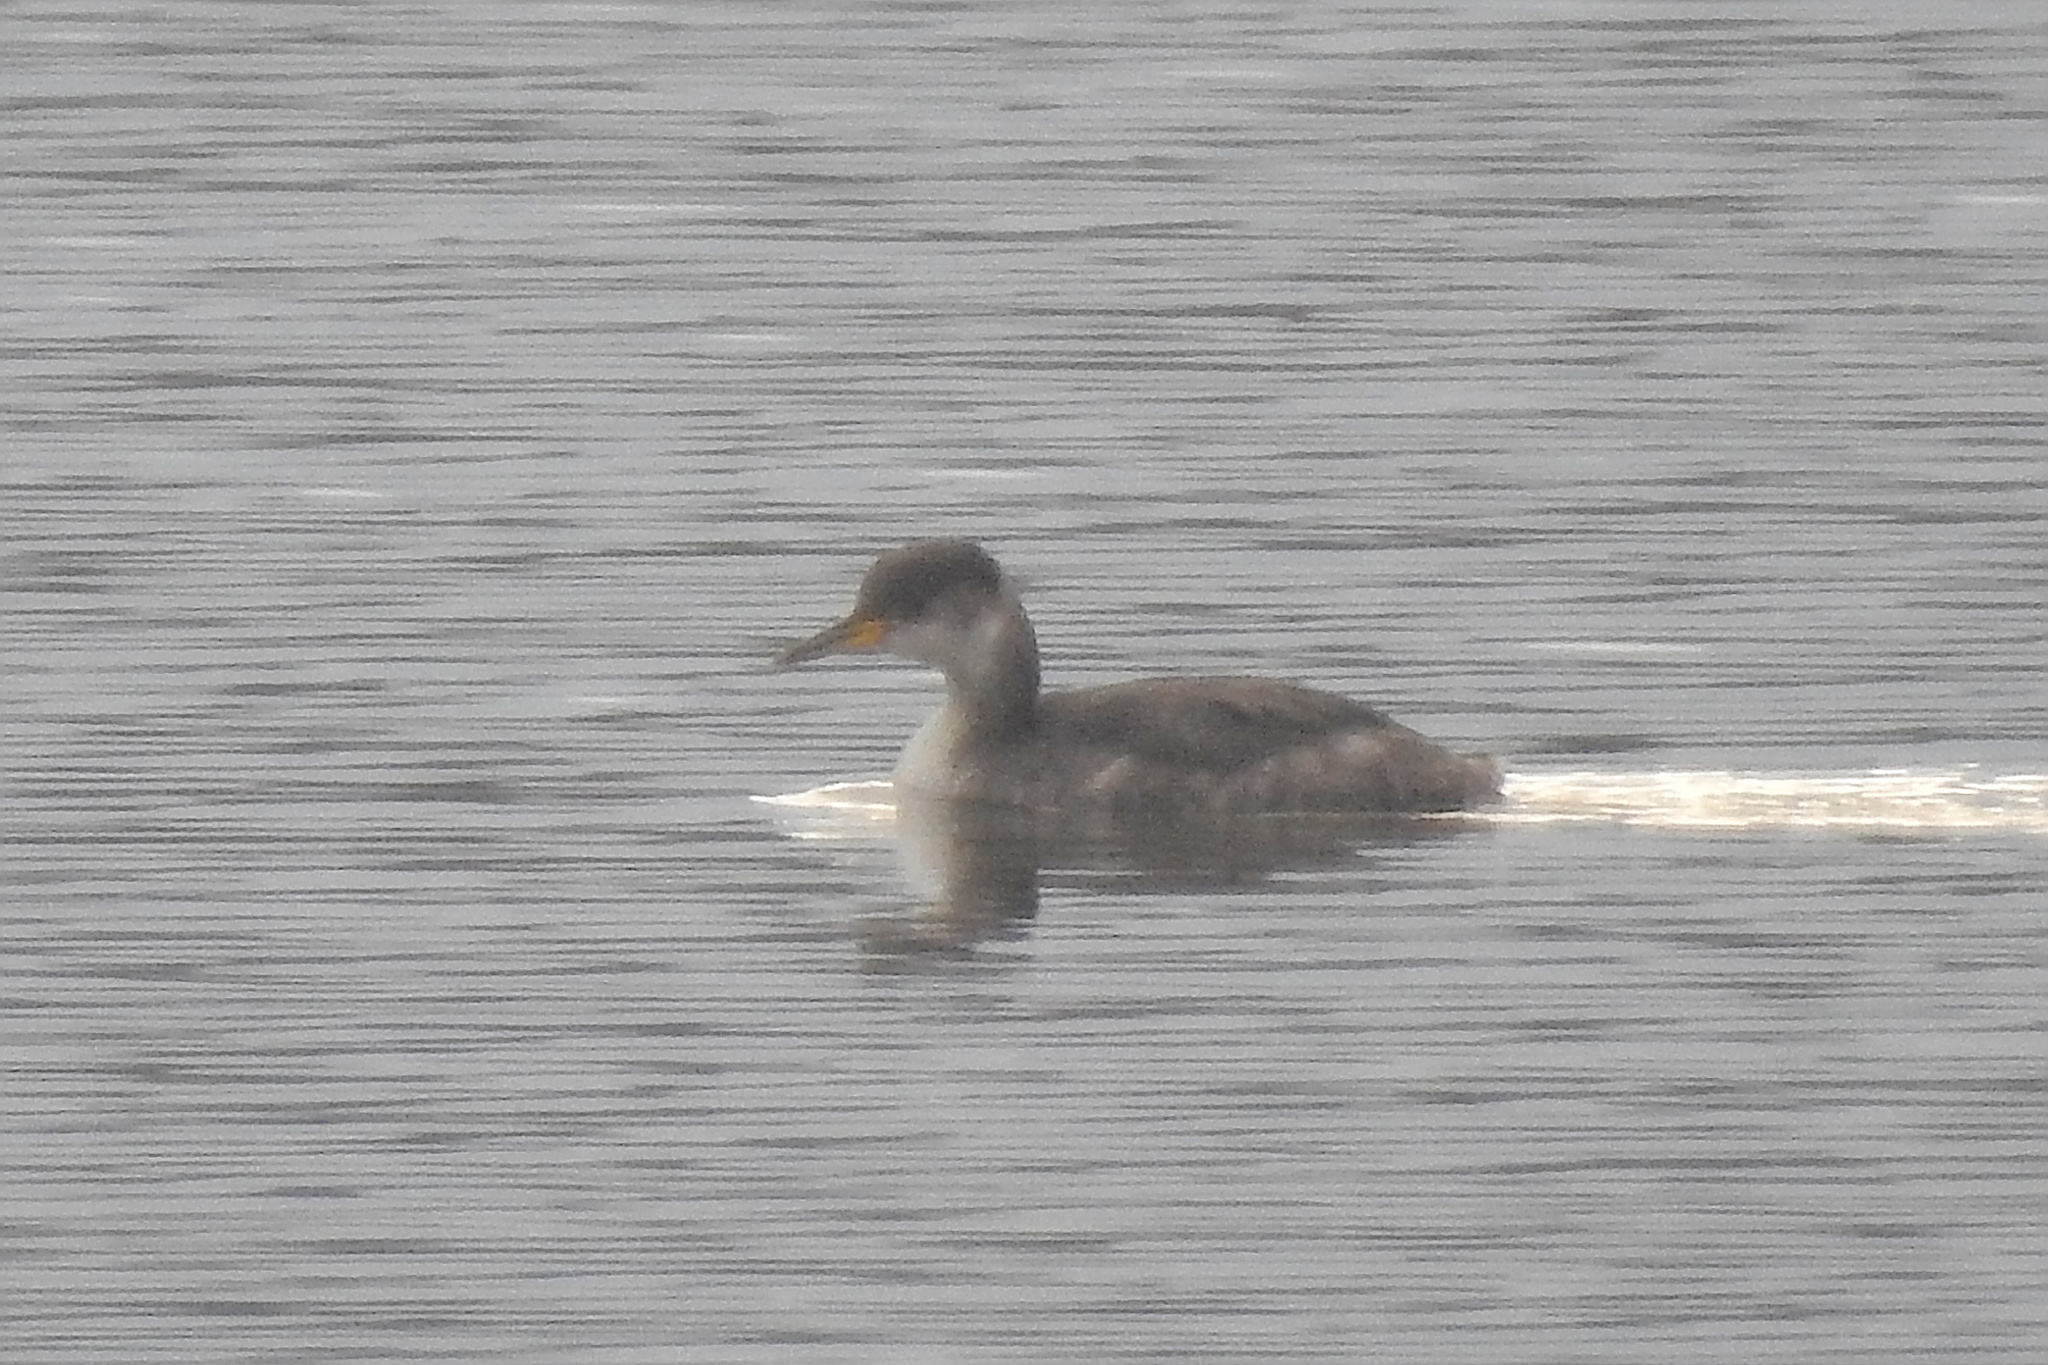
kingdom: Animalia
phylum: Chordata
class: Aves
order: Podicipediformes
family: Podicipedidae
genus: Podiceps
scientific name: Podiceps grisegena
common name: Red-necked grebe
